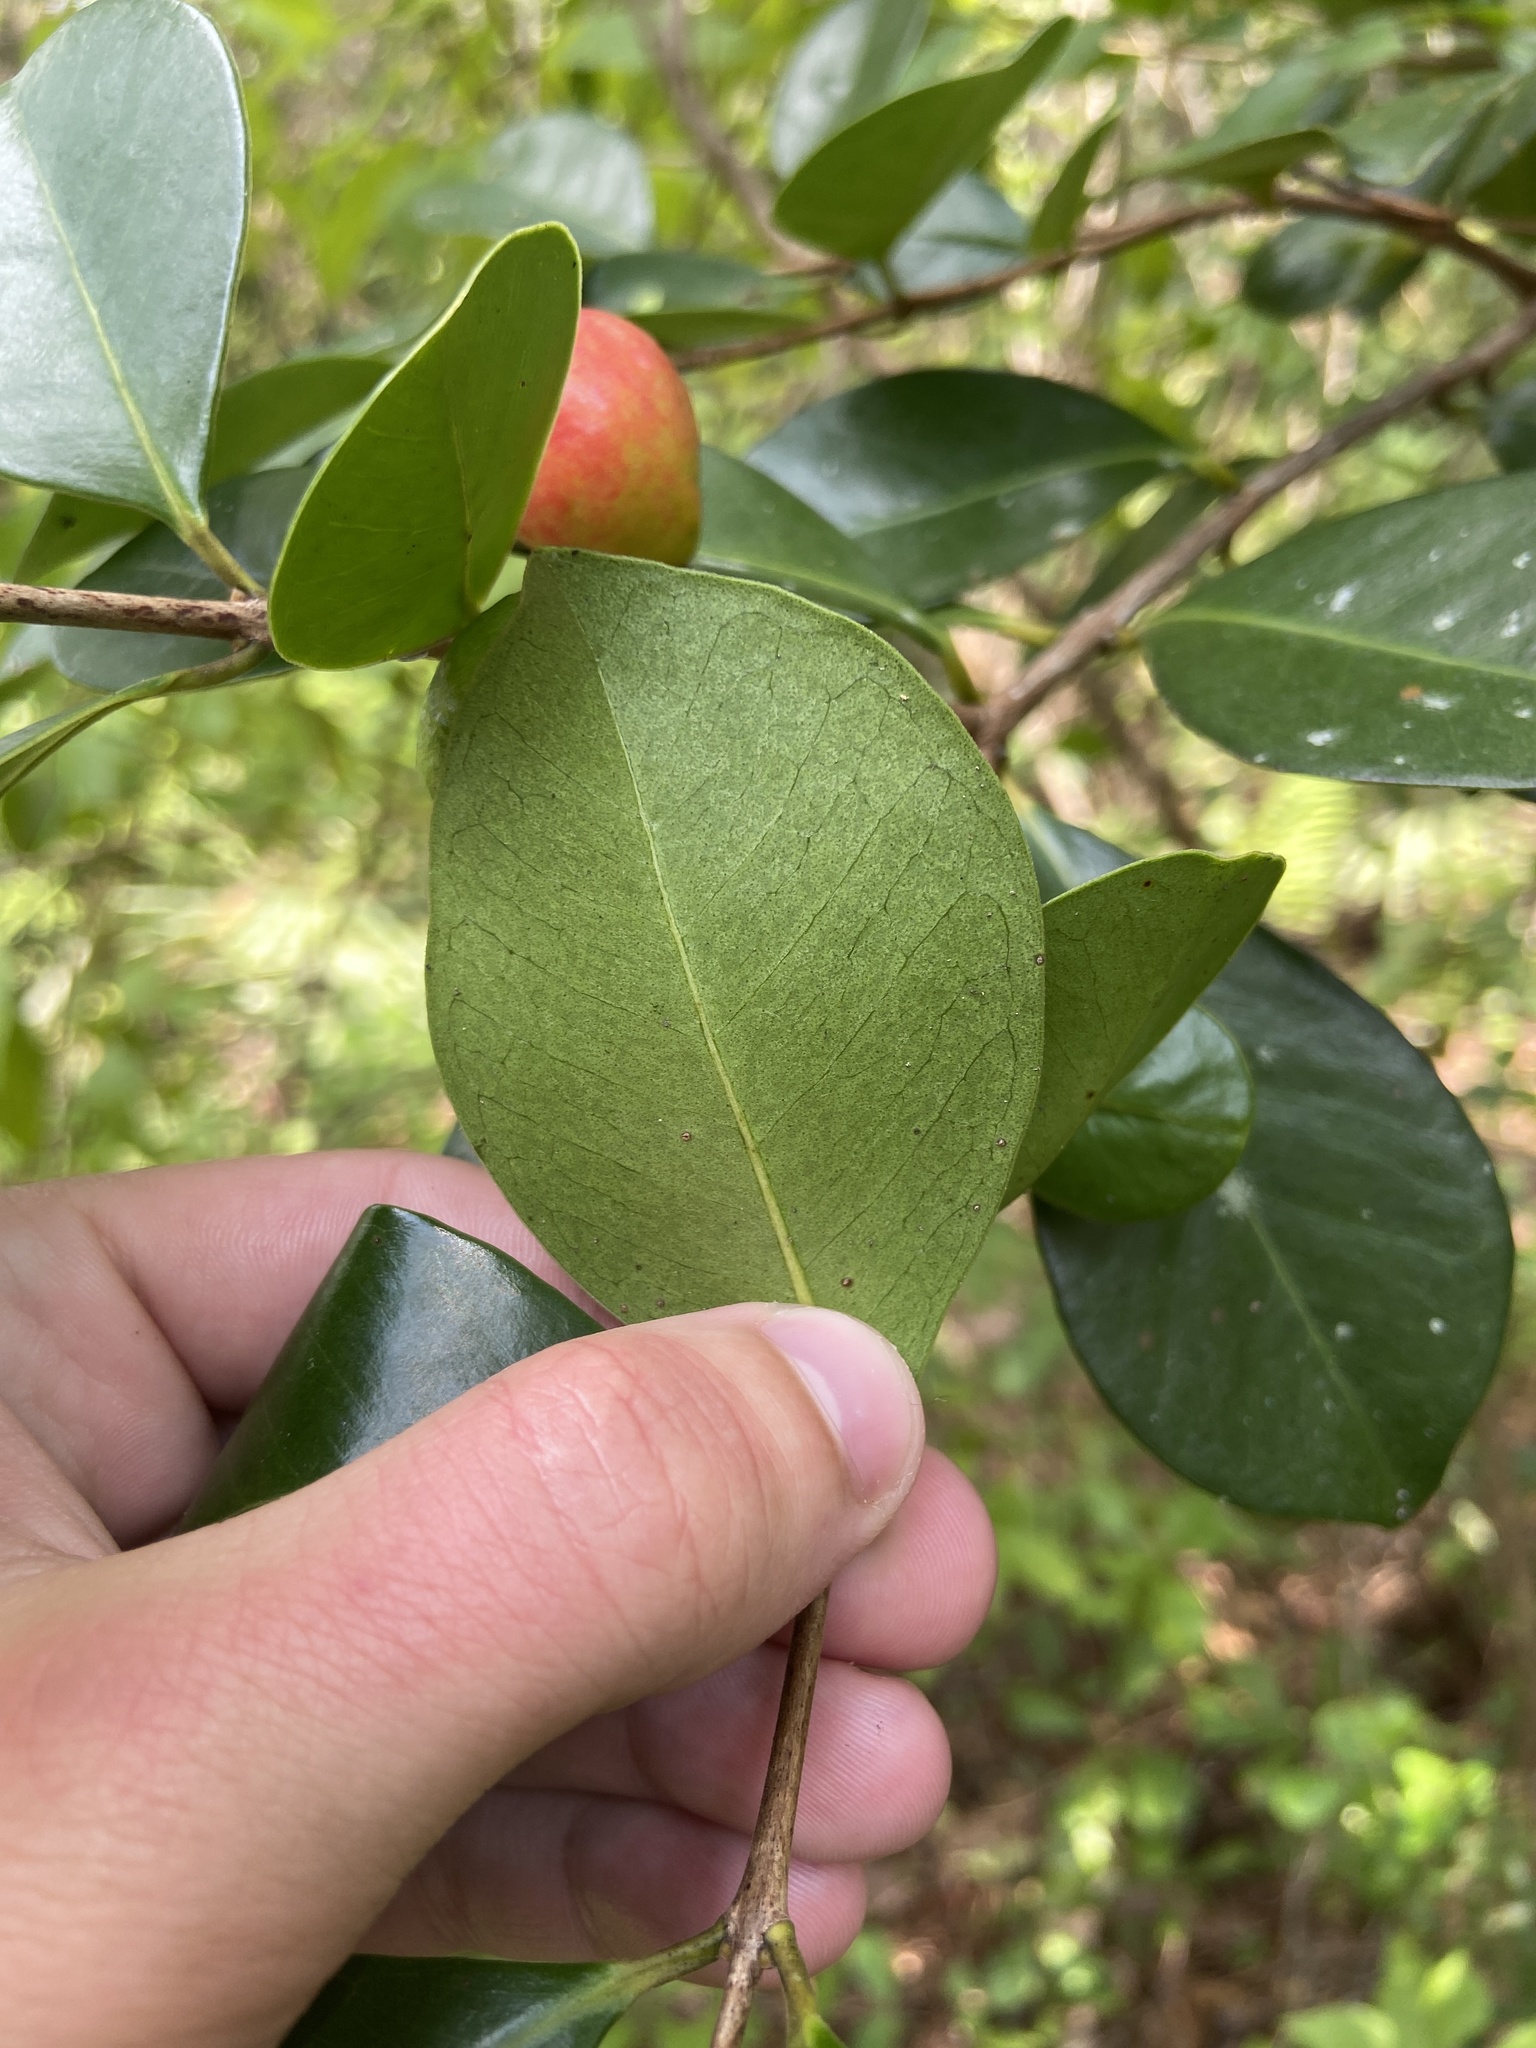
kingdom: Plantae
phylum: Tracheophyta
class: Magnoliopsida
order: Myrtales
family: Myrtaceae
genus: Psidium
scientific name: Psidium cattleianum
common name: Strawberry guava
